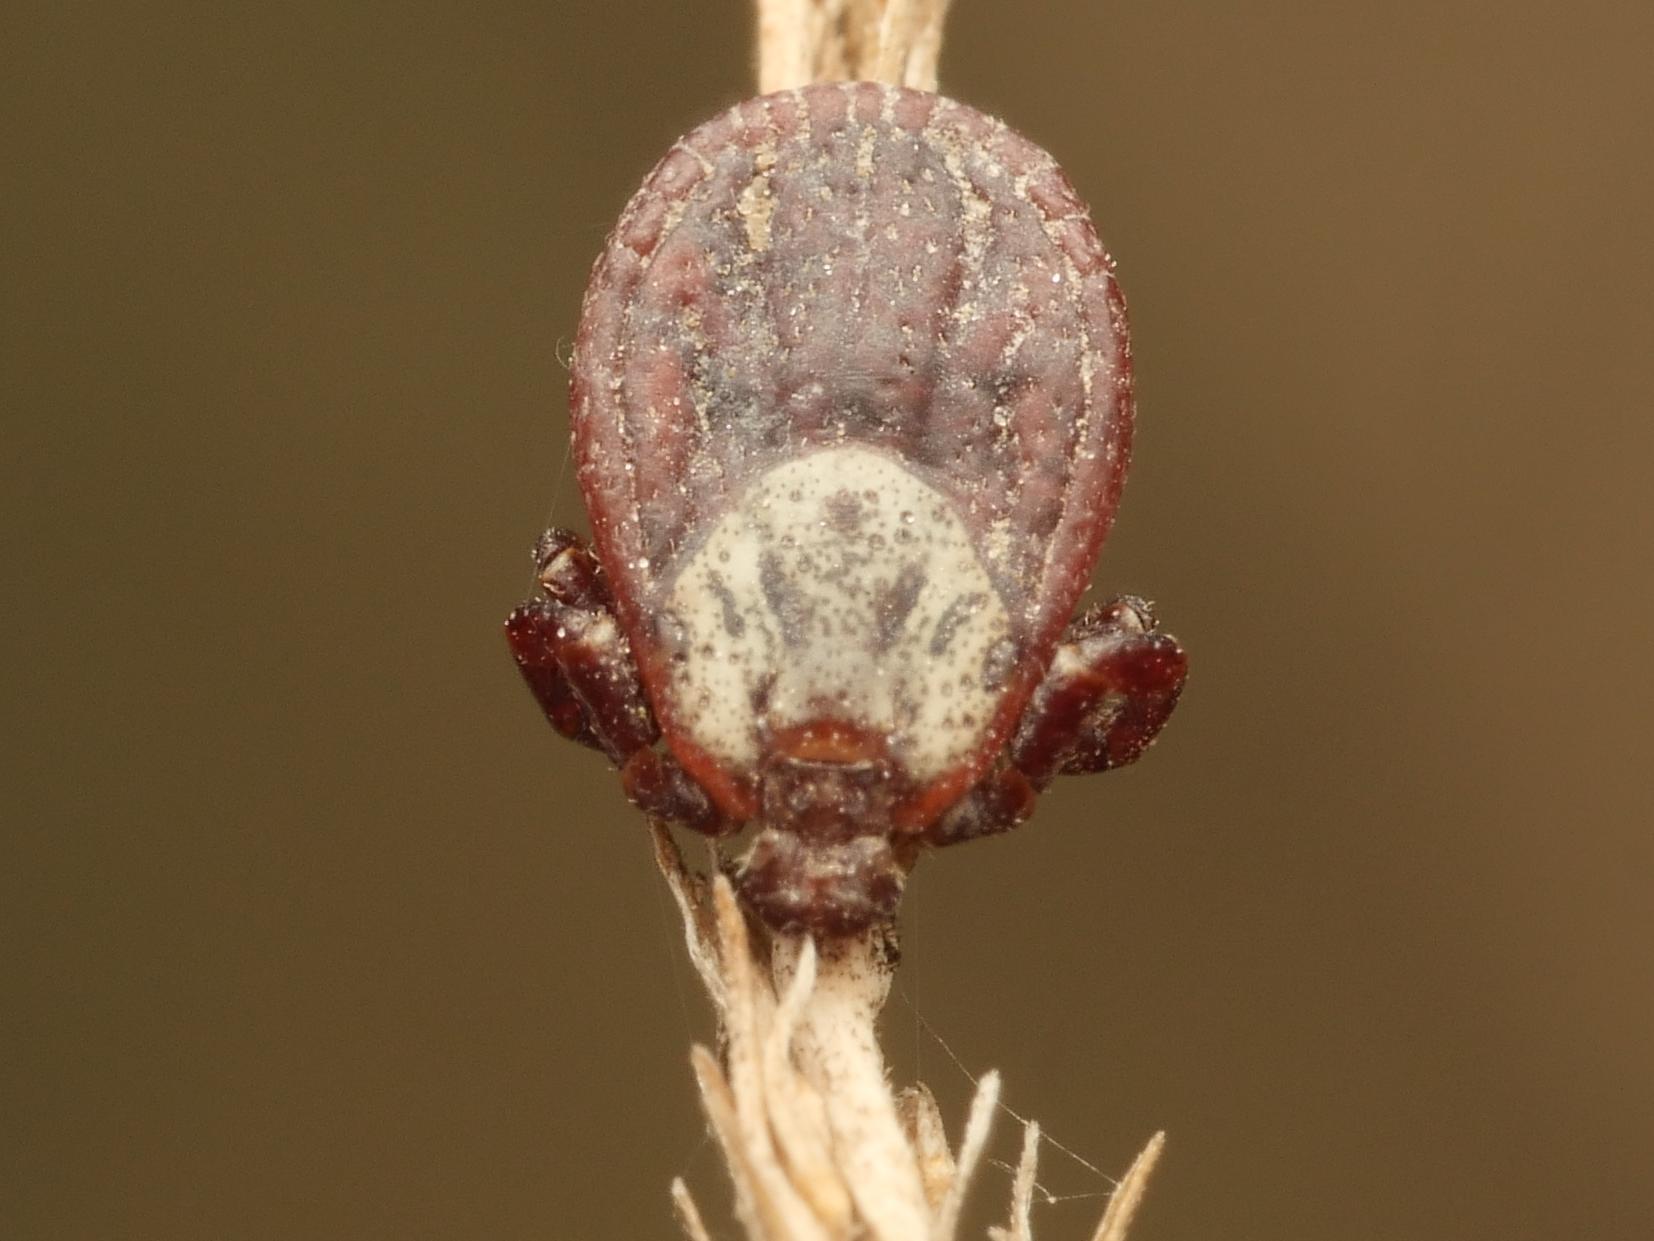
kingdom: Animalia
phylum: Arthropoda
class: Arachnida
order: Ixodida
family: Ixodidae
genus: Dermacentor
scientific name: Dermacentor reticulatus
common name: Ornate cow tick
